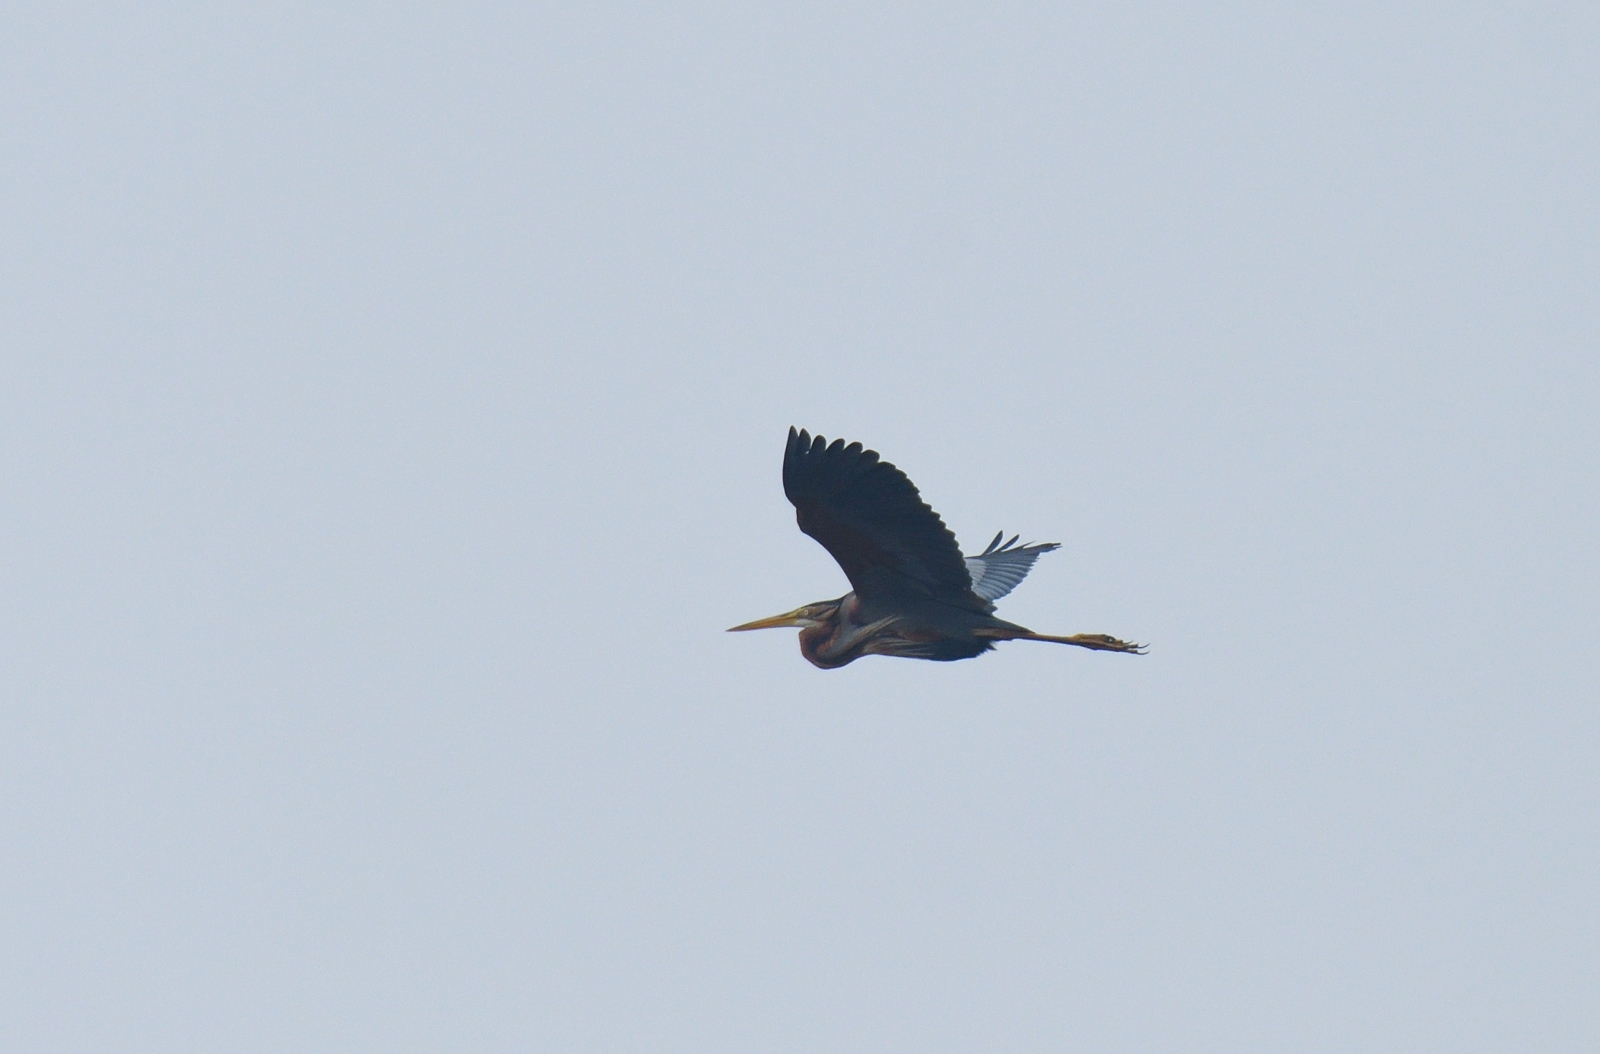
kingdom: Animalia
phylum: Chordata
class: Aves
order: Pelecaniformes
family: Ardeidae
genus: Ardea
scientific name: Ardea purpurea
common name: Purple heron
